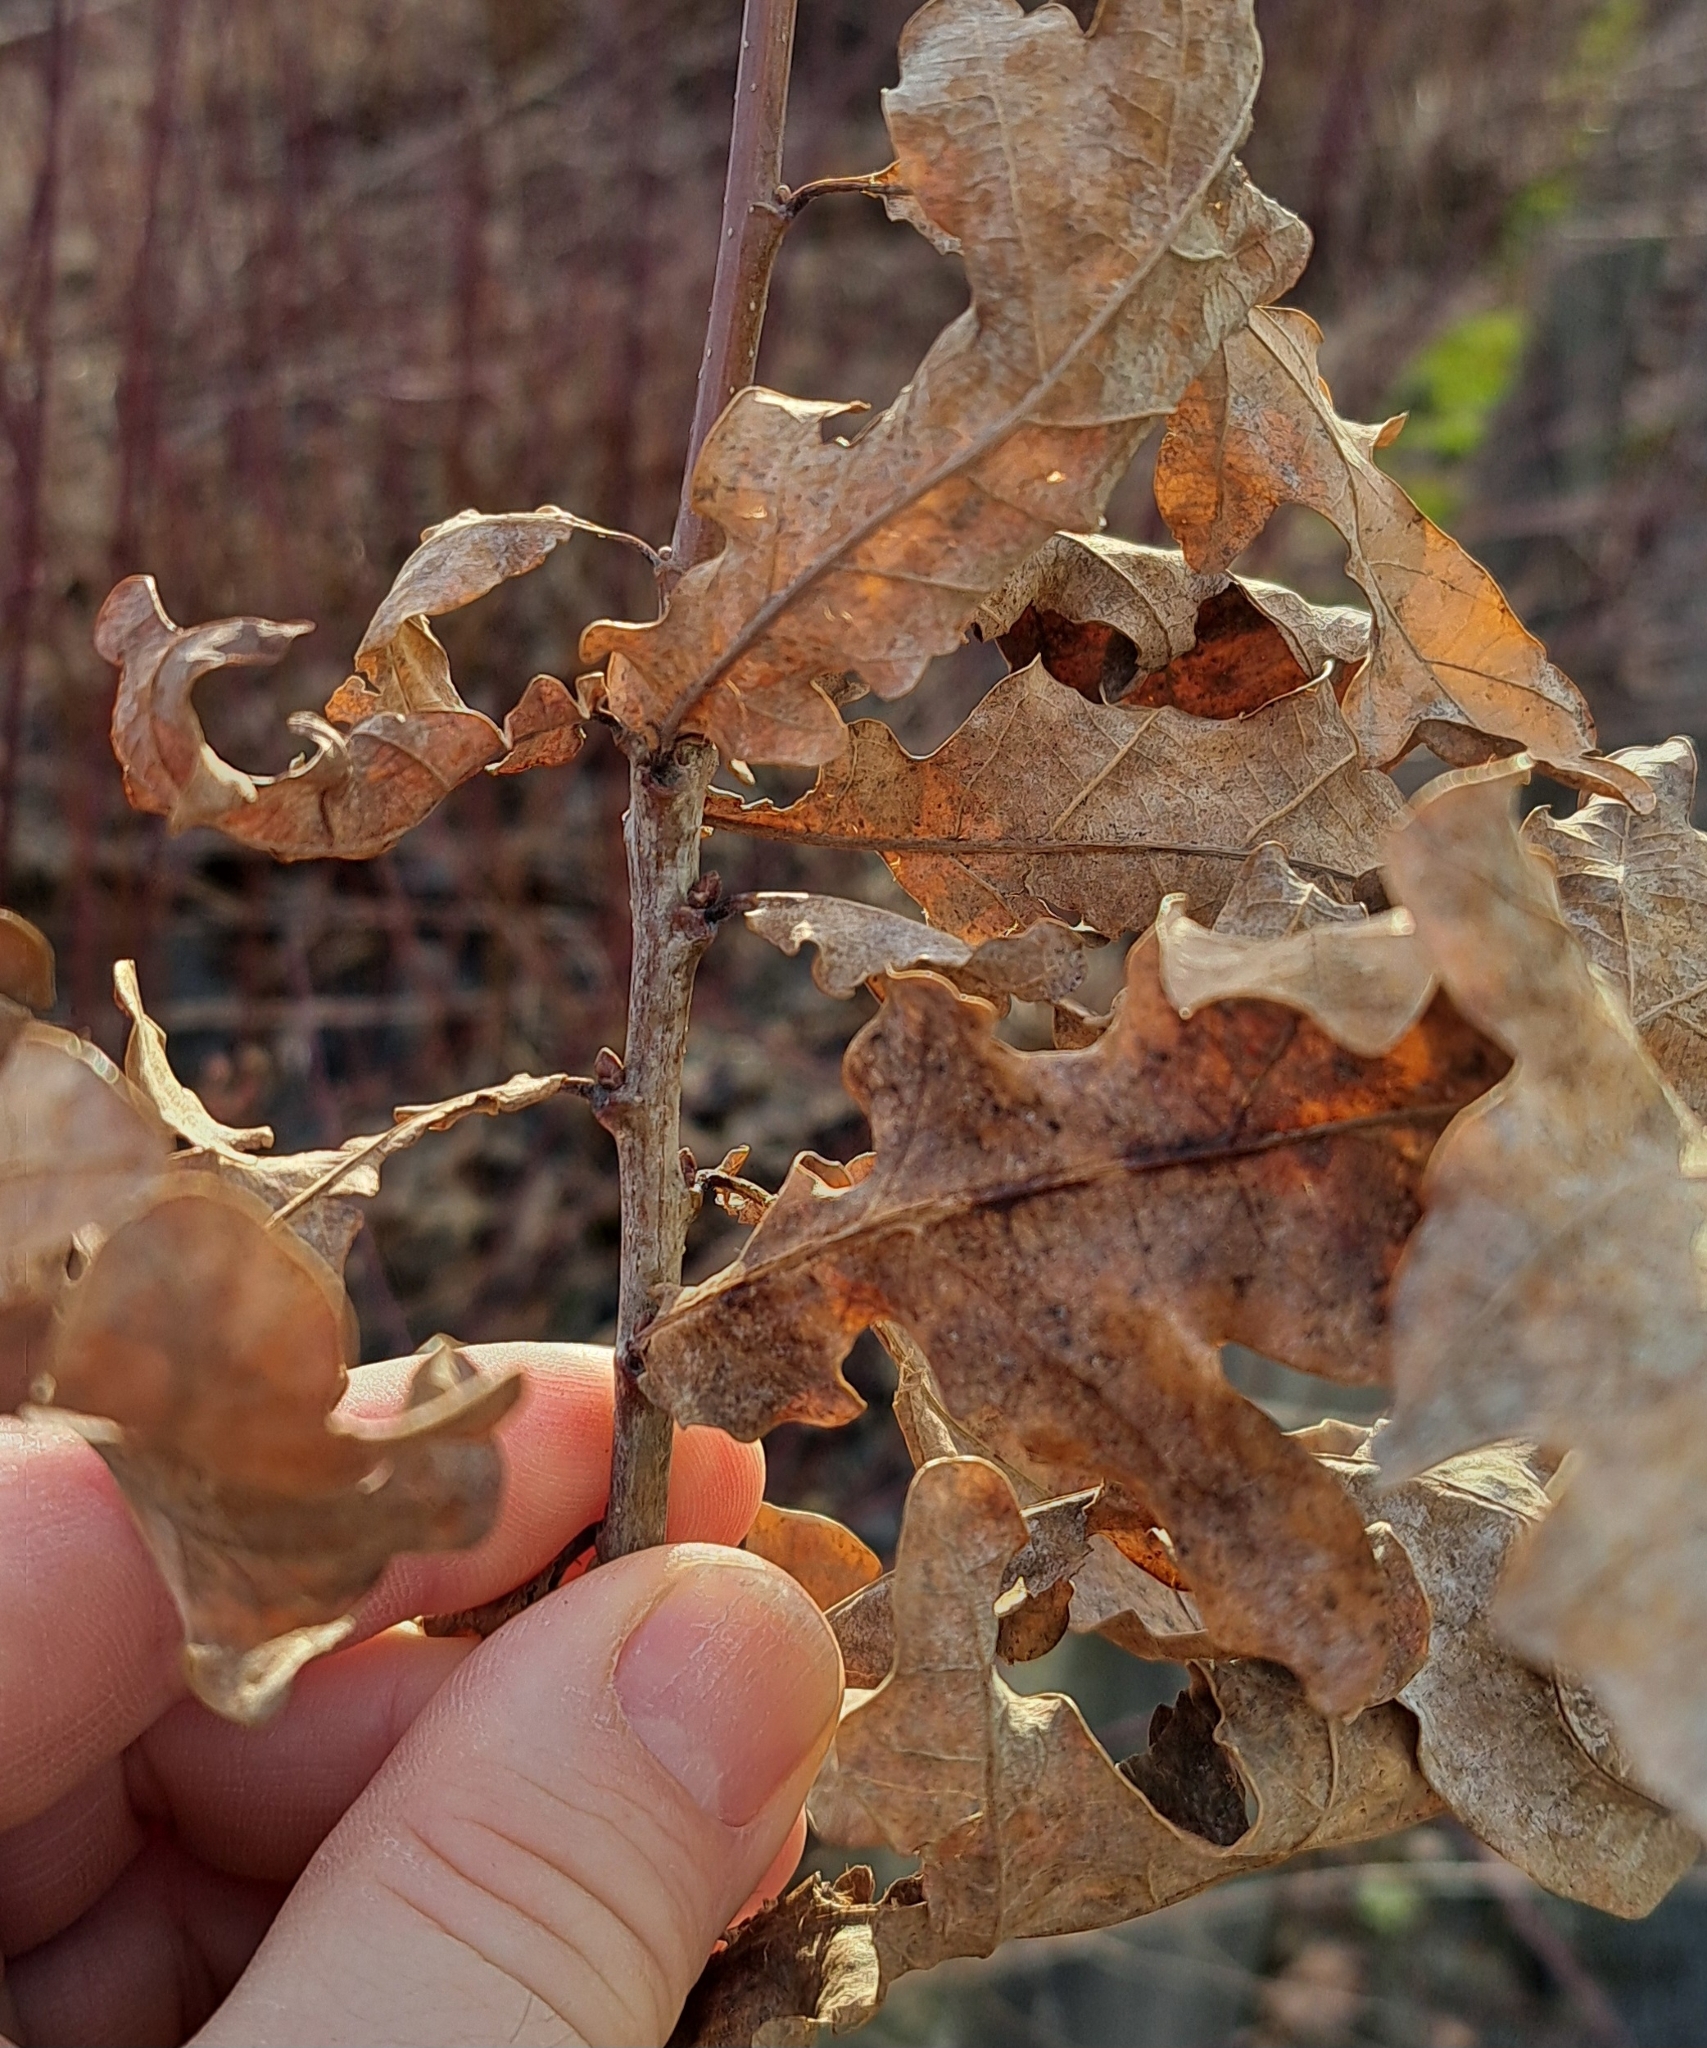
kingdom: Plantae
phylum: Tracheophyta
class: Magnoliopsida
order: Fagales
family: Fagaceae
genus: Quercus
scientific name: Quercus robur
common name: Pedunculate oak
